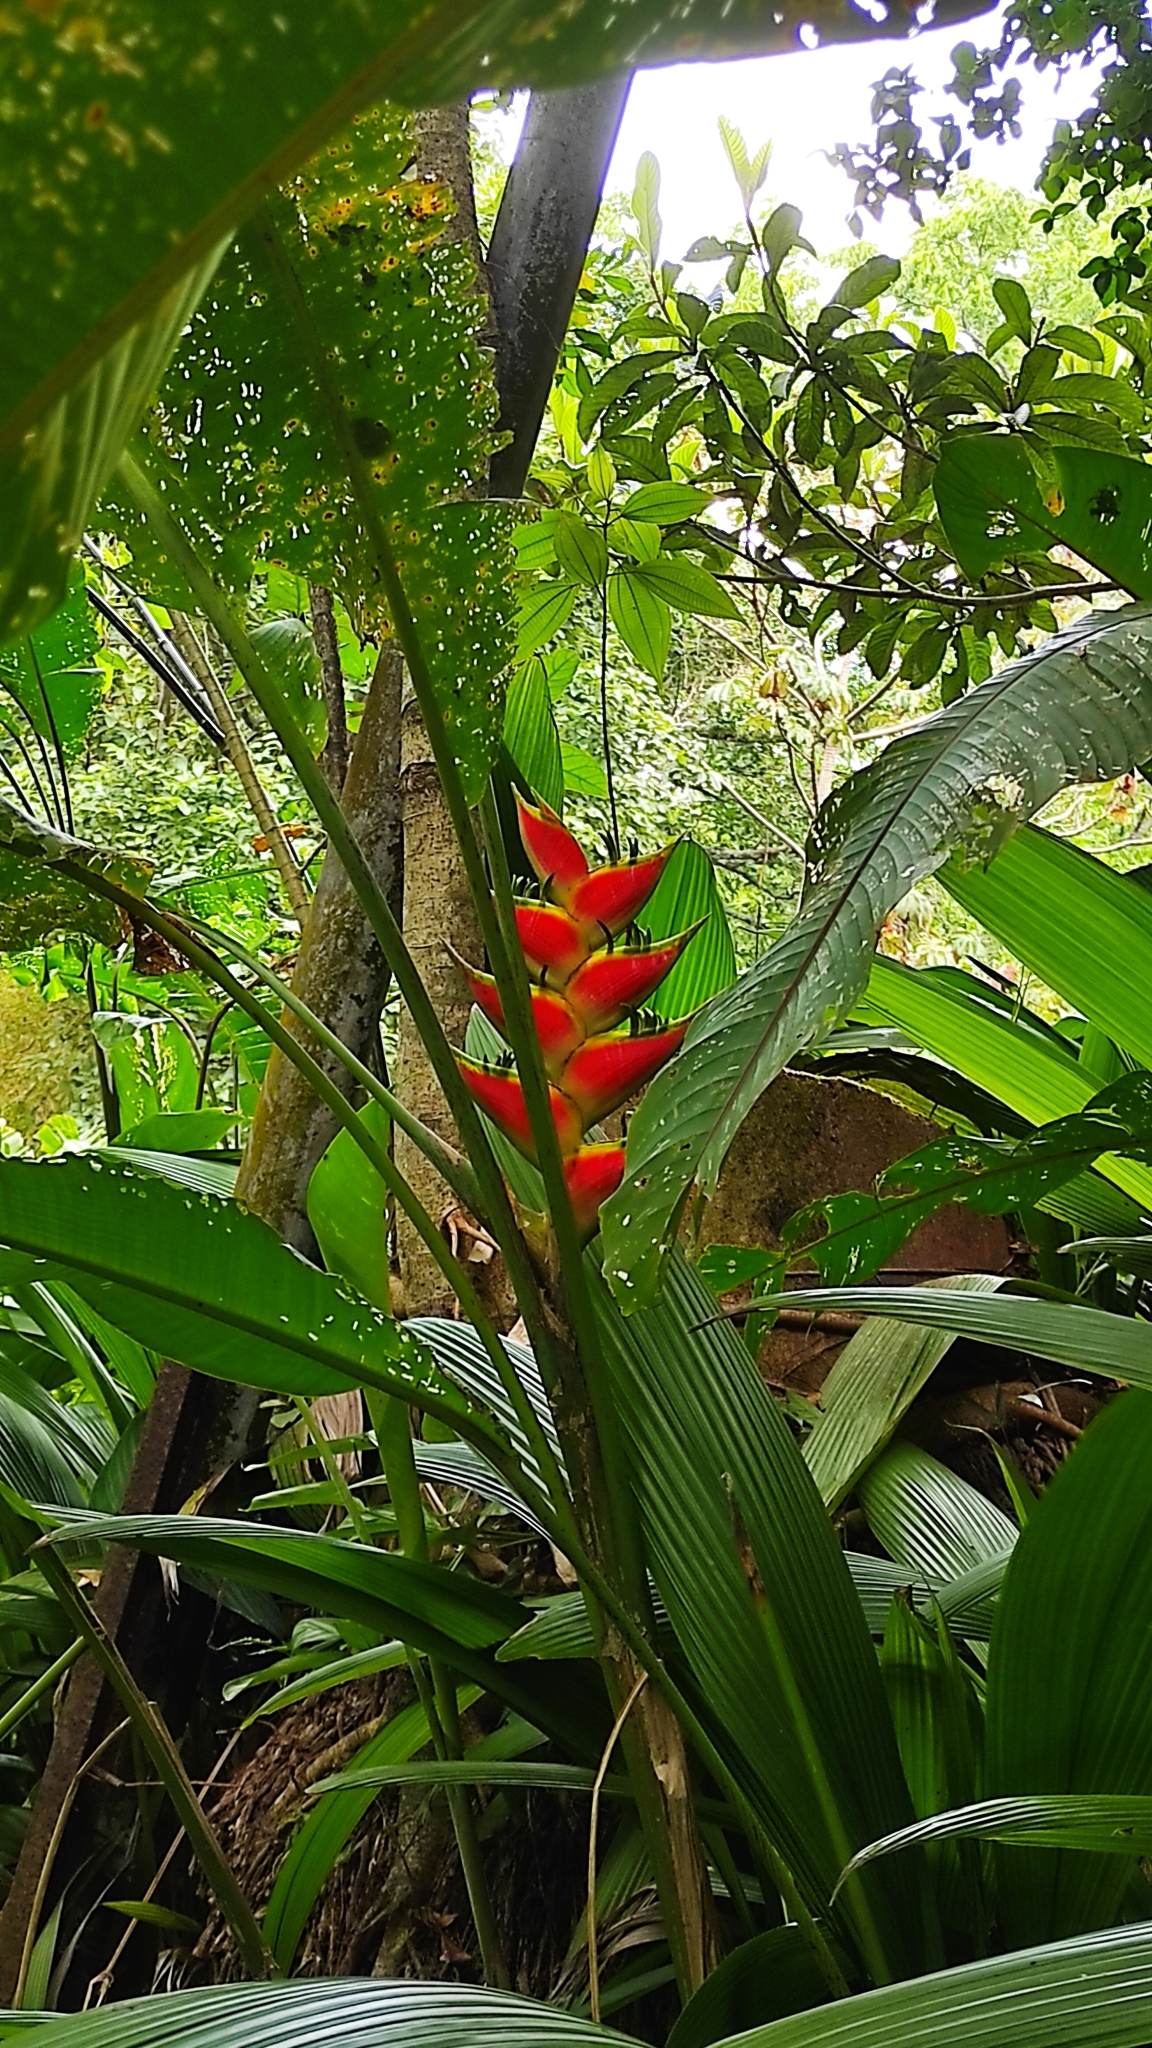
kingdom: Plantae
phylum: Tracheophyta
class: Liliopsida
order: Zingiberales
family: Heliconiaceae
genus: Heliconia
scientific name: Heliconia bihai
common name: Macaw flower
